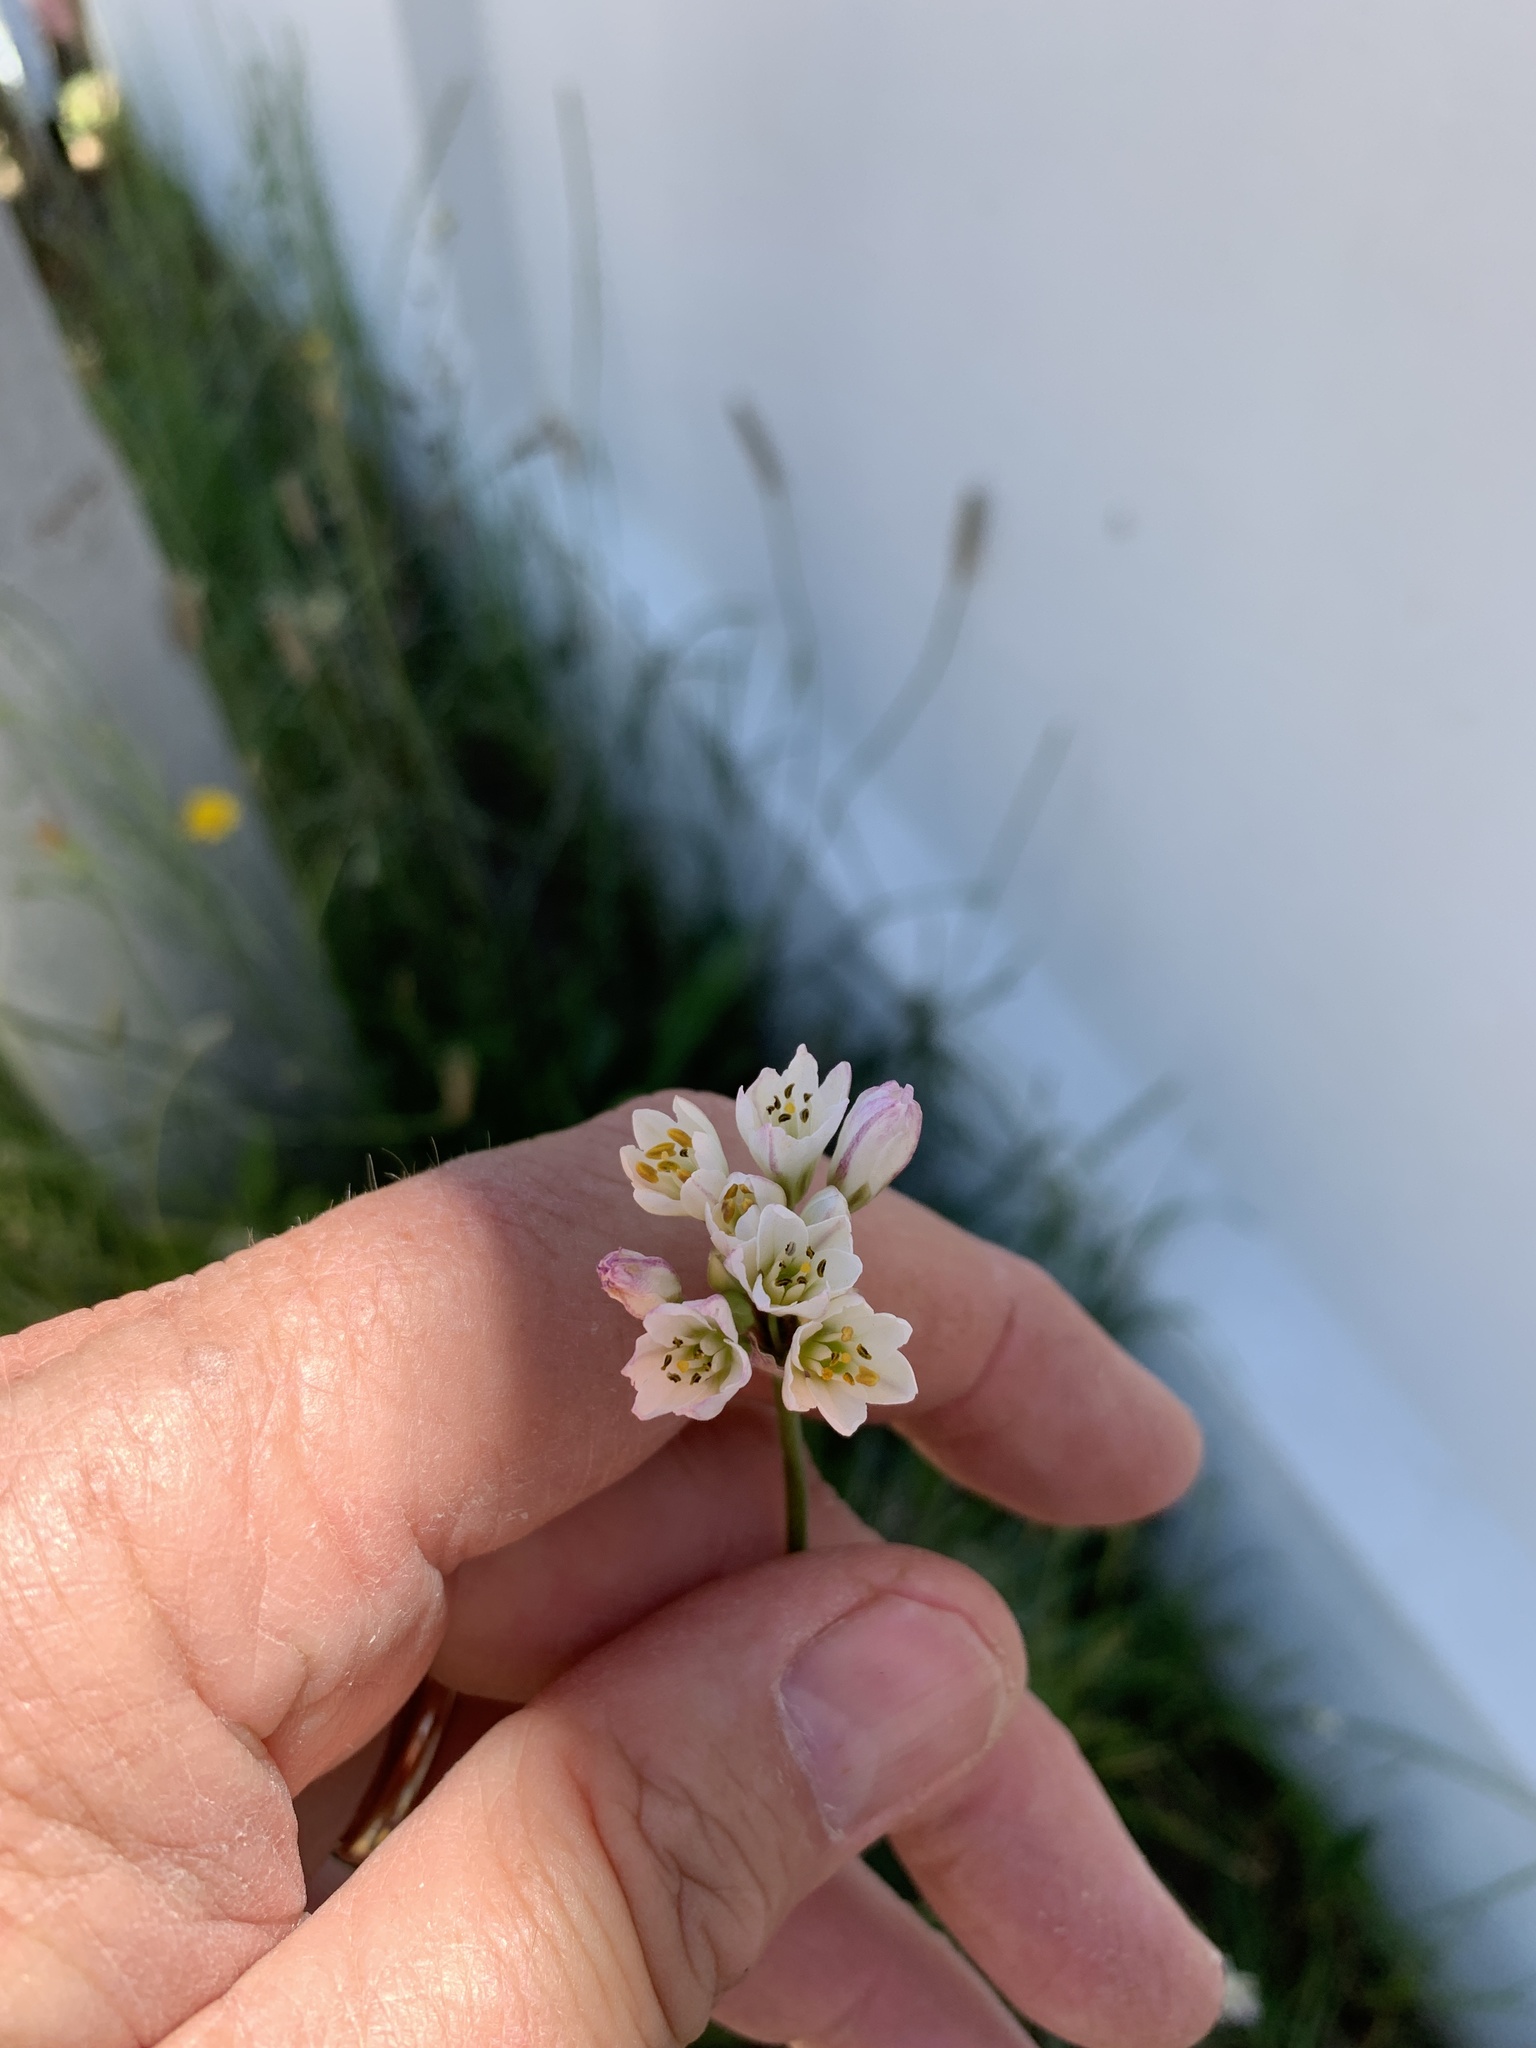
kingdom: Plantae
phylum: Tracheophyta
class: Liliopsida
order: Asparagales
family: Amaryllidaceae
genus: Nothoscordum
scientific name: Nothoscordum gracile
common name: Slender false garlic
